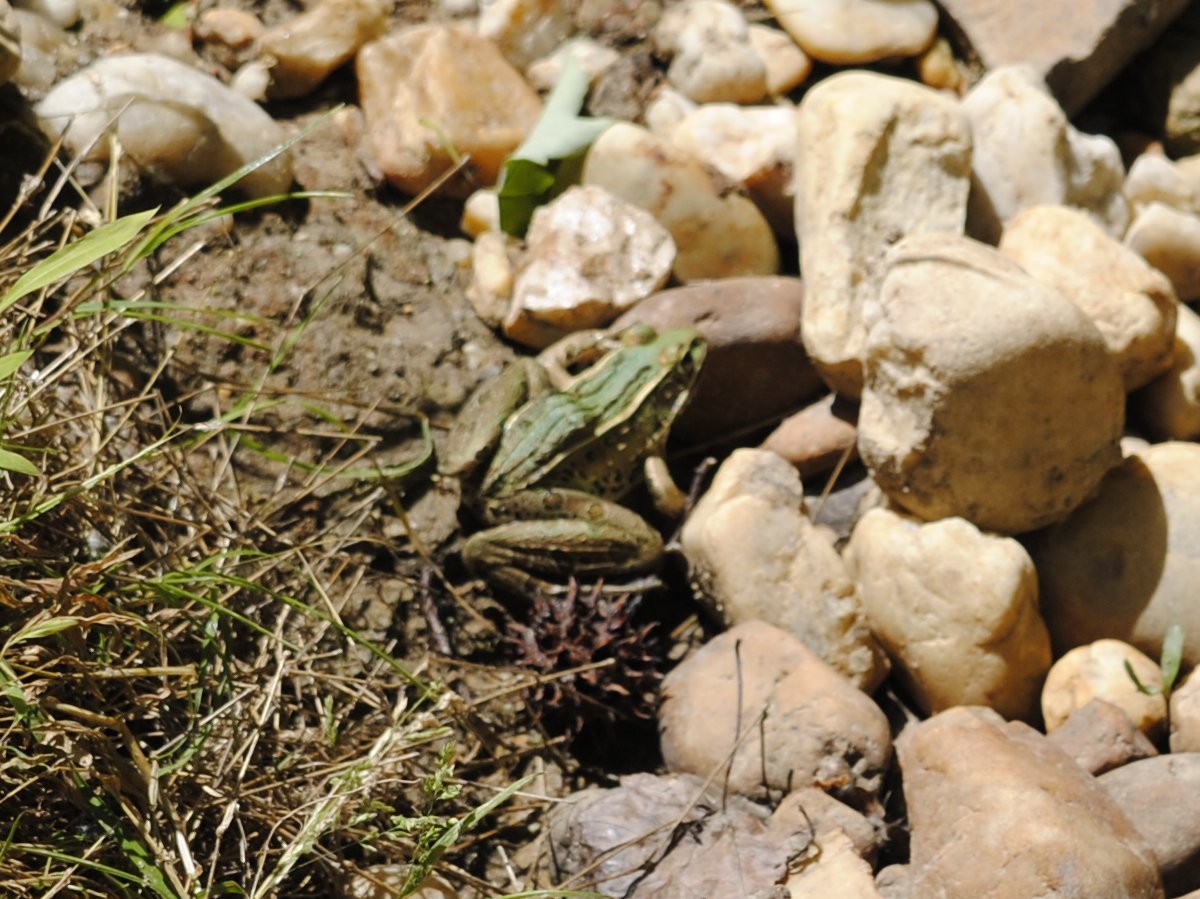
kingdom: Animalia
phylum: Chordata
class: Amphibia
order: Anura
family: Ranidae
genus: Lithobates
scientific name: Lithobates sphenocephalus
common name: Southern leopard frog
